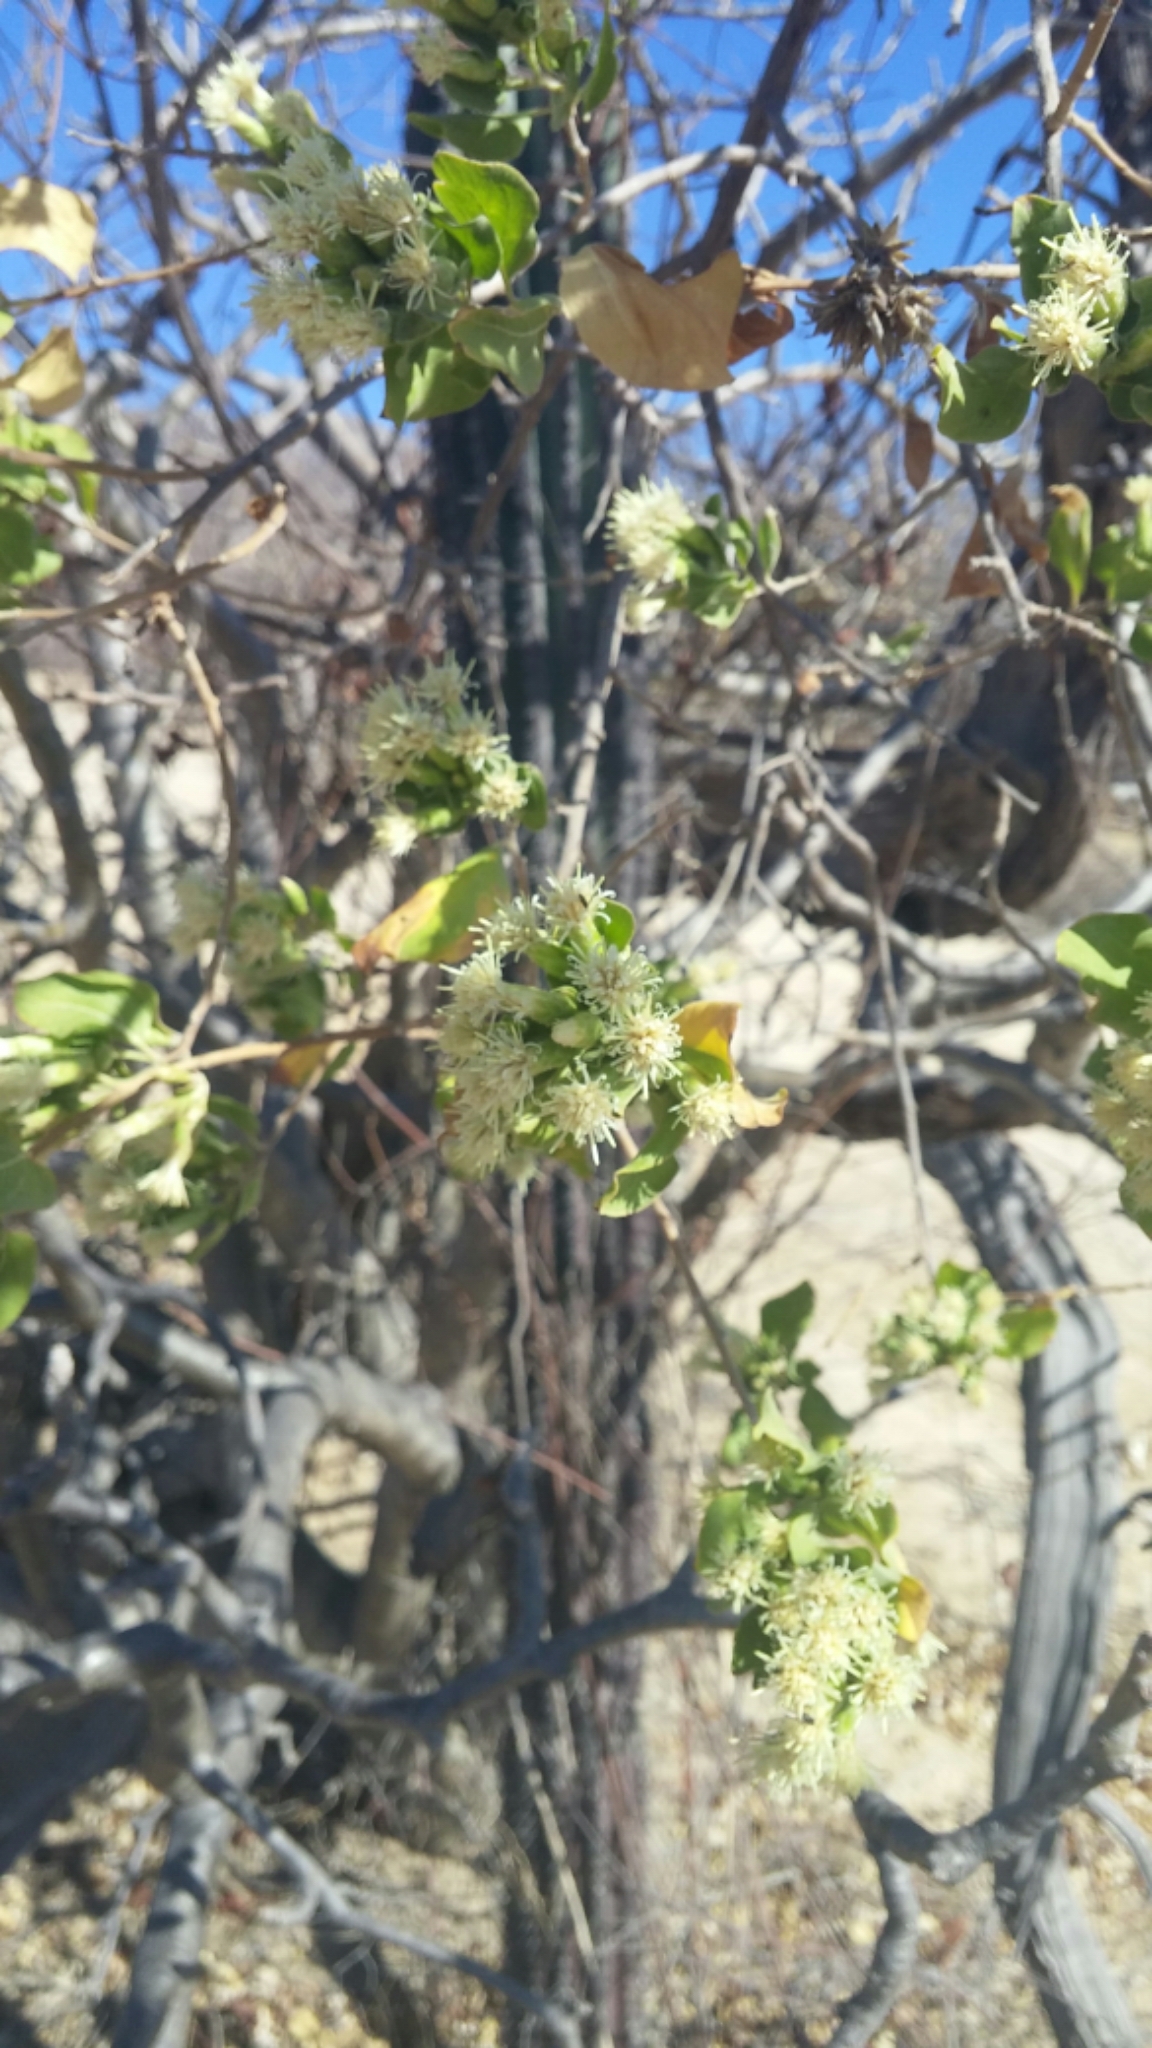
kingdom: Plantae
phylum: Tracheophyta
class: Magnoliopsida
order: Asterales
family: Asteraceae
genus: Nahuatlea
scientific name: Nahuatlea arborescens
